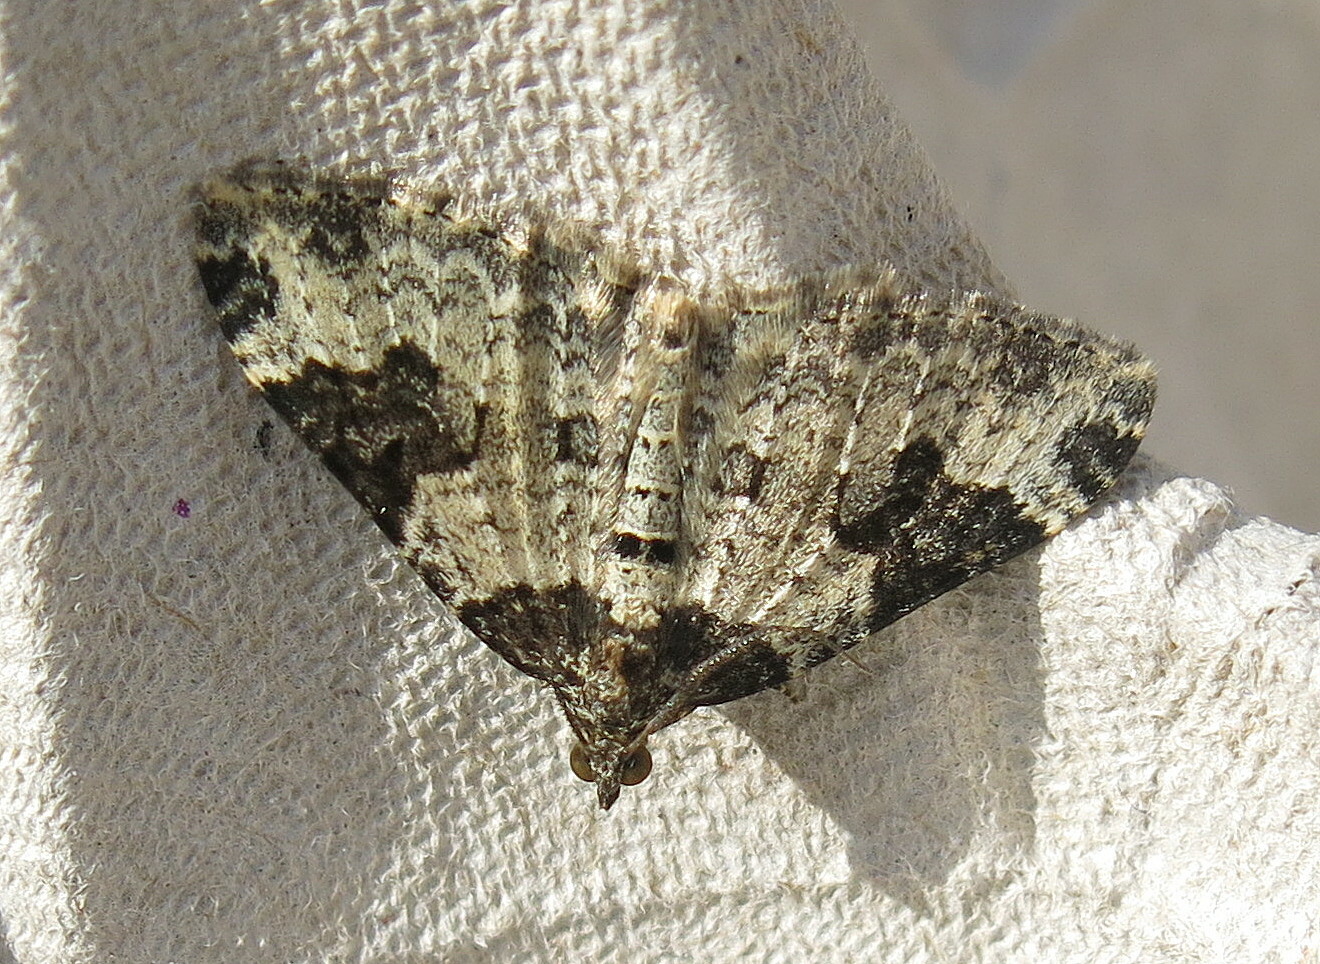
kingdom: Animalia
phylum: Arthropoda
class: Insecta
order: Lepidoptera
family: Geometridae
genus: Xanthorhoe
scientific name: Xanthorhoe fluctuata
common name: Garden carpet
